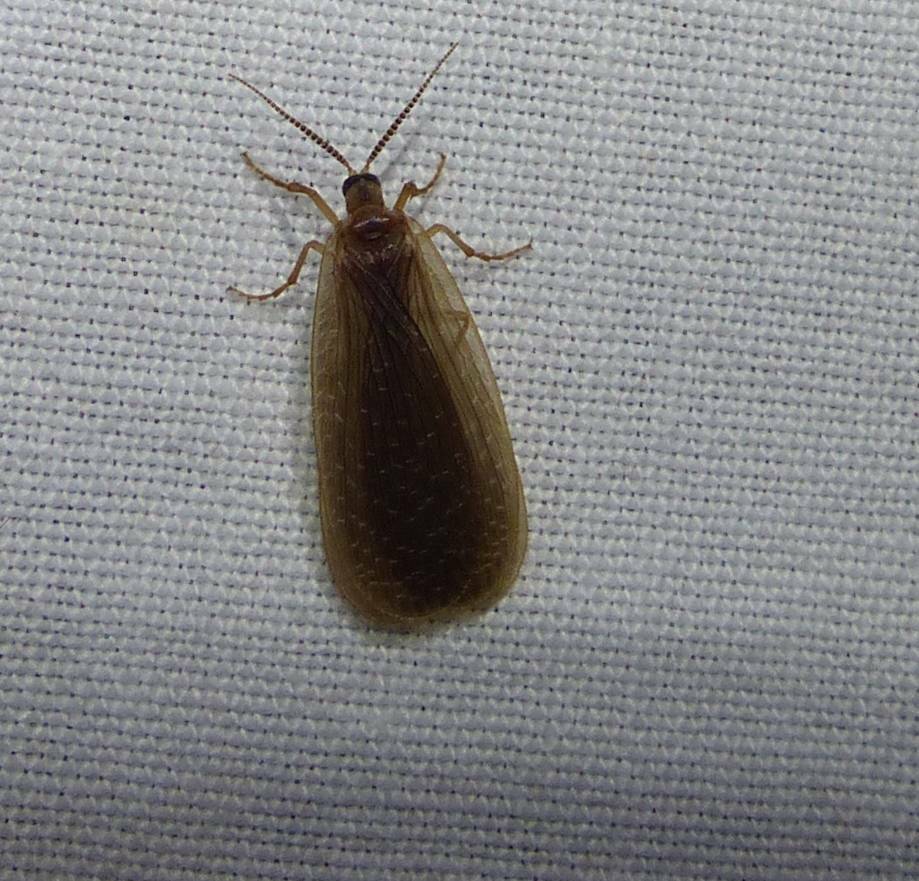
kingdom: Animalia
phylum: Arthropoda
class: Insecta
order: Mecoptera
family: Meropeidae
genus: Merope
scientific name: Merope tuber
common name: Forcepfly
